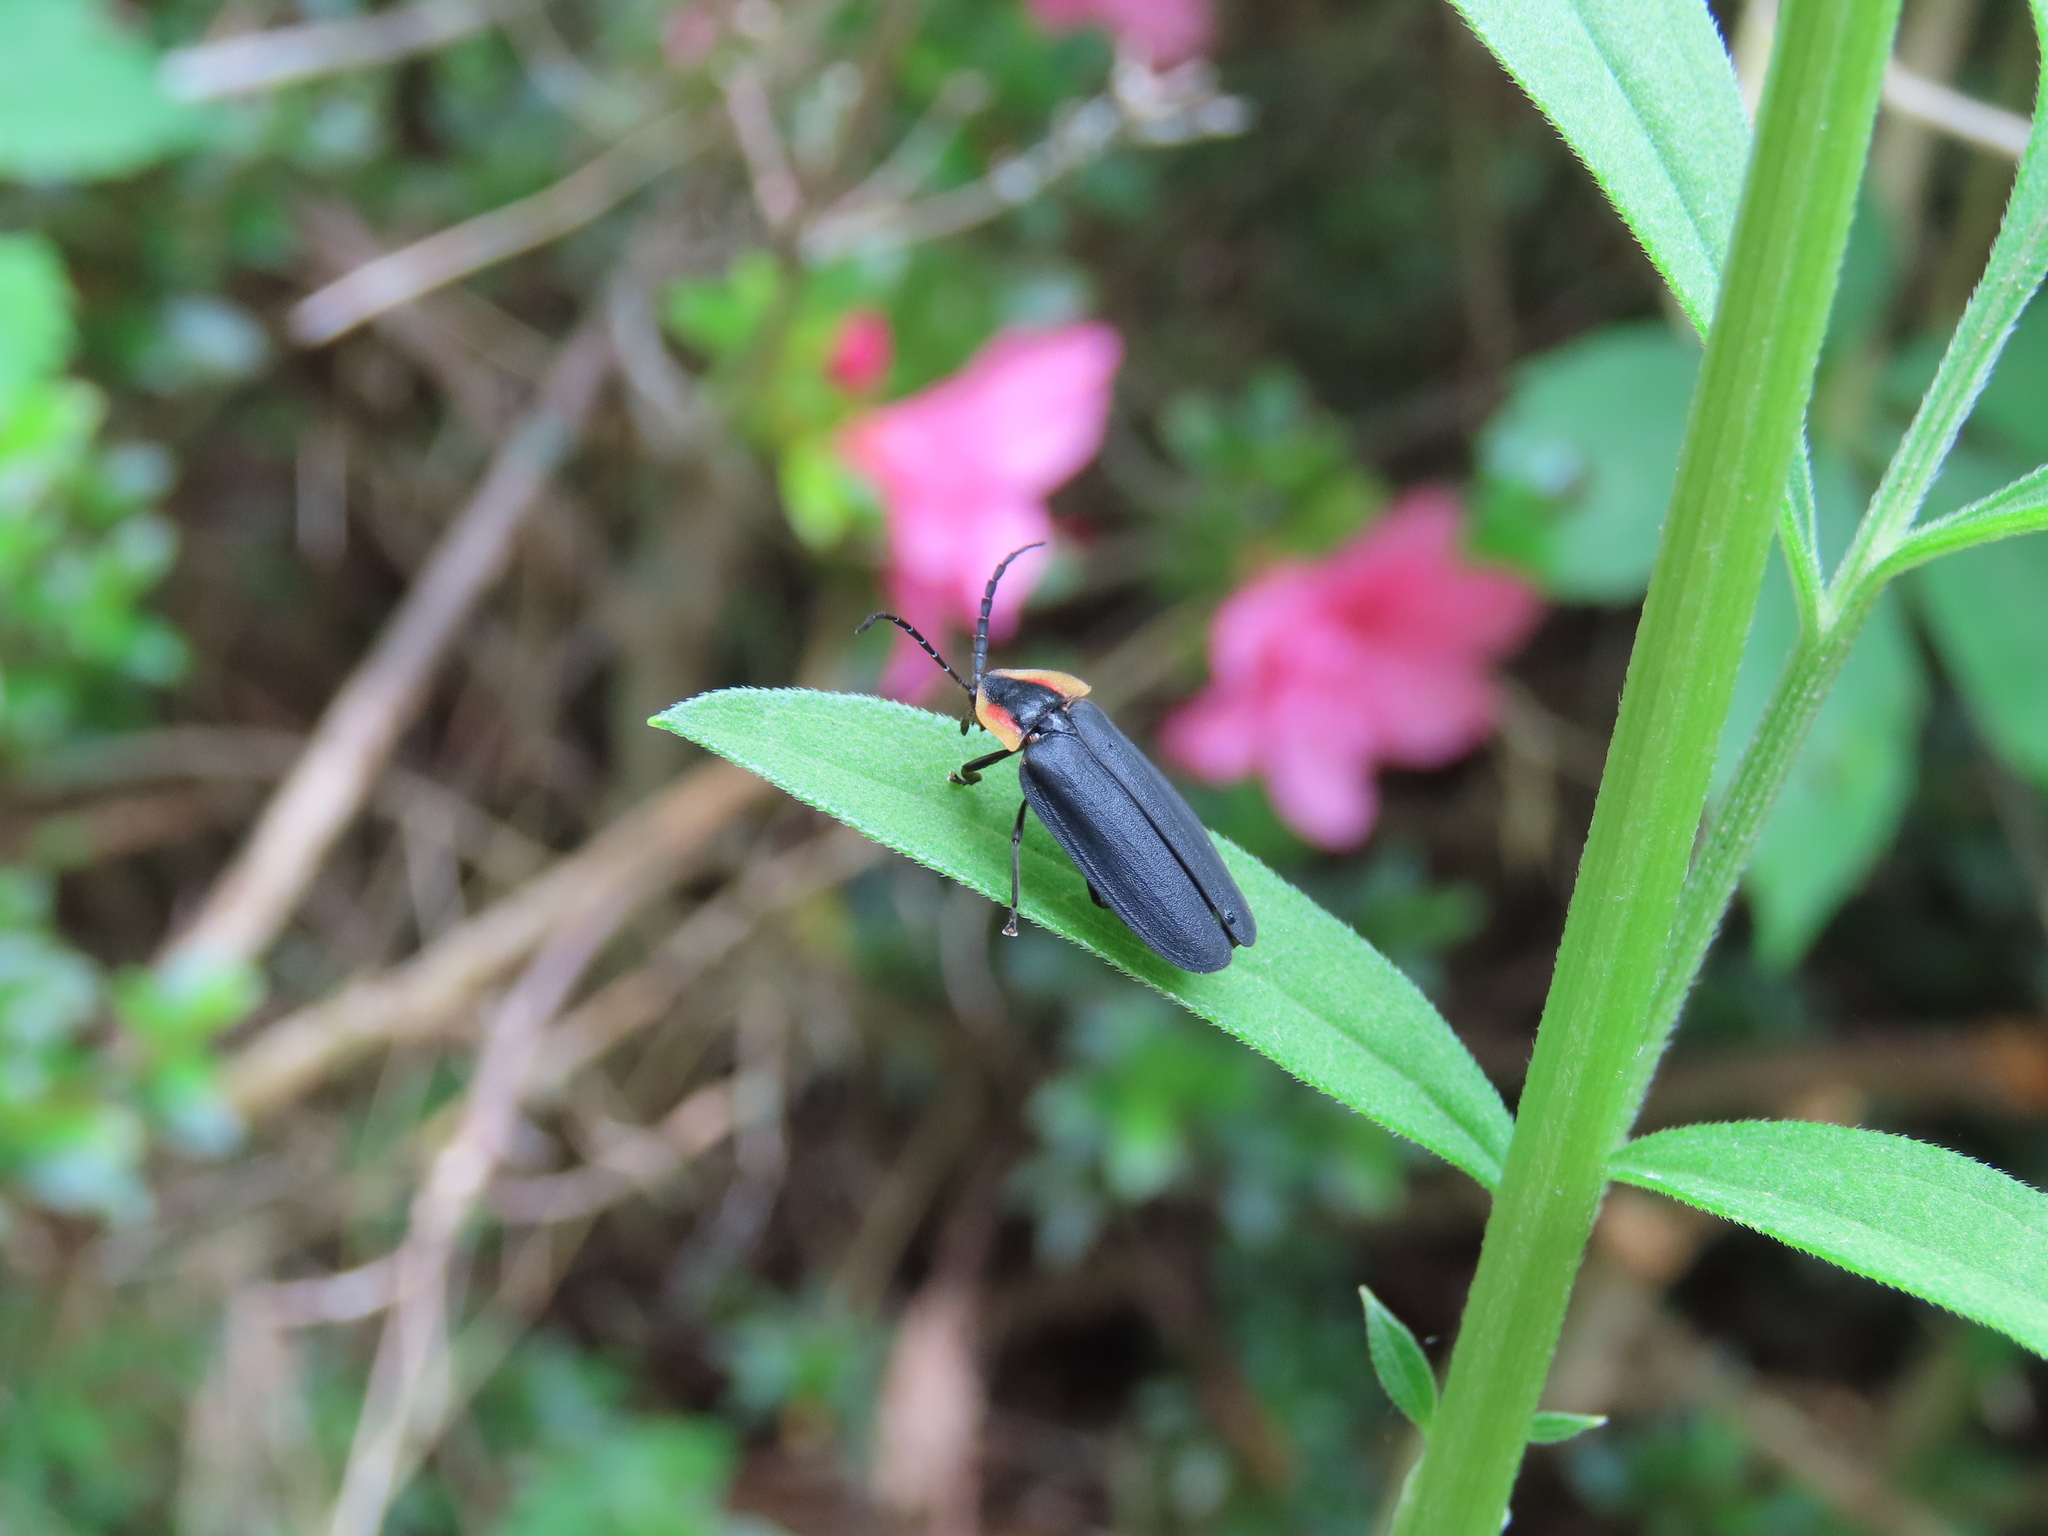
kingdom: Animalia
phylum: Arthropoda
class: Insecta
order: Coleoptera
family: Lampyridae
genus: Lucidota
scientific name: Lucidota atra
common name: Black firefly
